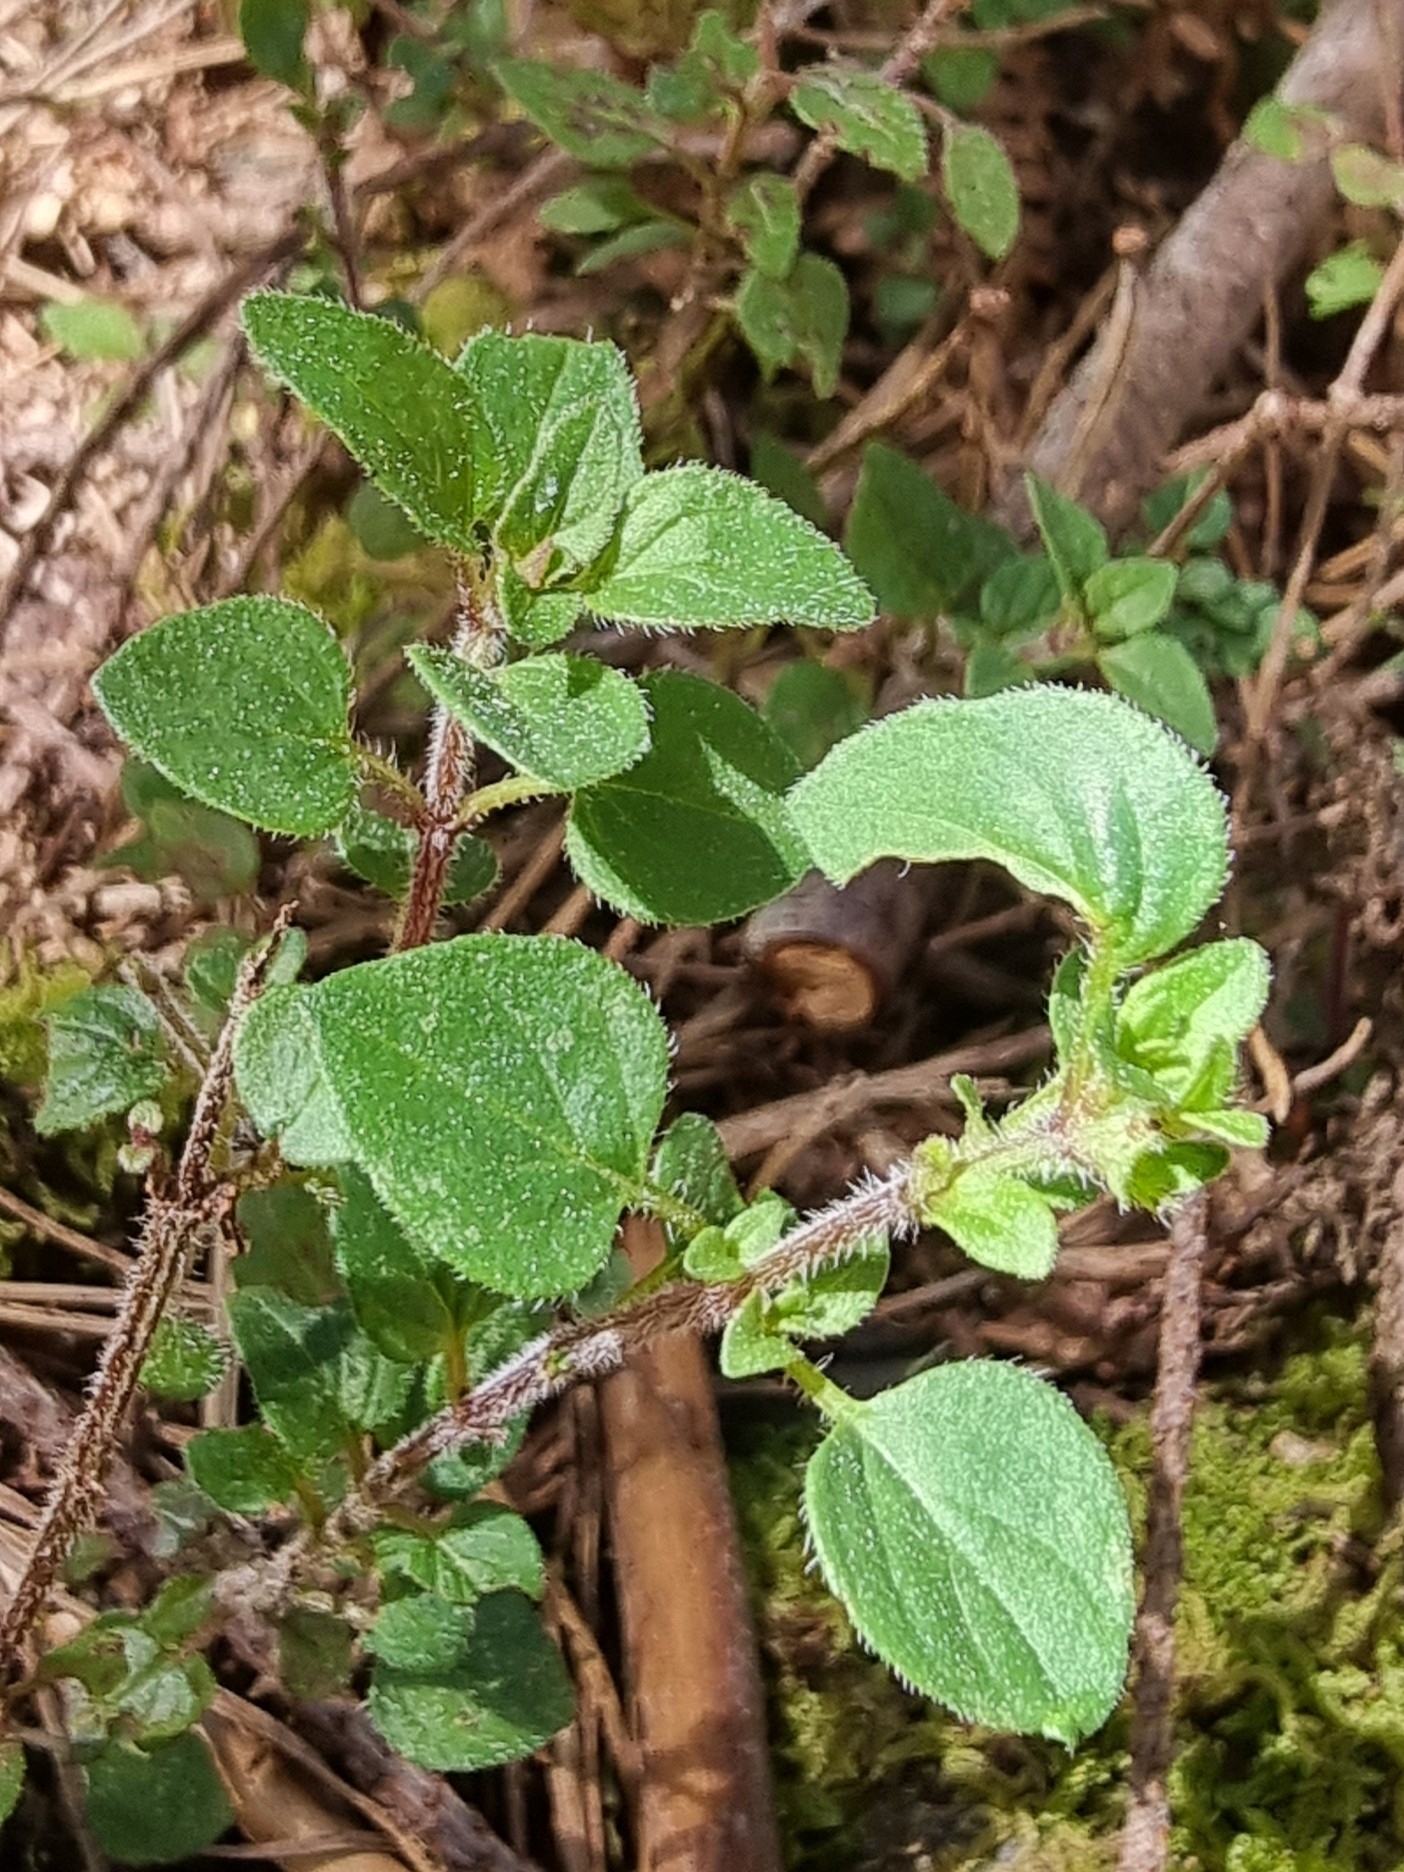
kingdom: Plantae
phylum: Tracheophyta
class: Magnoliopsida
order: Lamiales
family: Lamiaceae
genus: Origanum
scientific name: Origanum vulgare
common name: Wild marjoram
